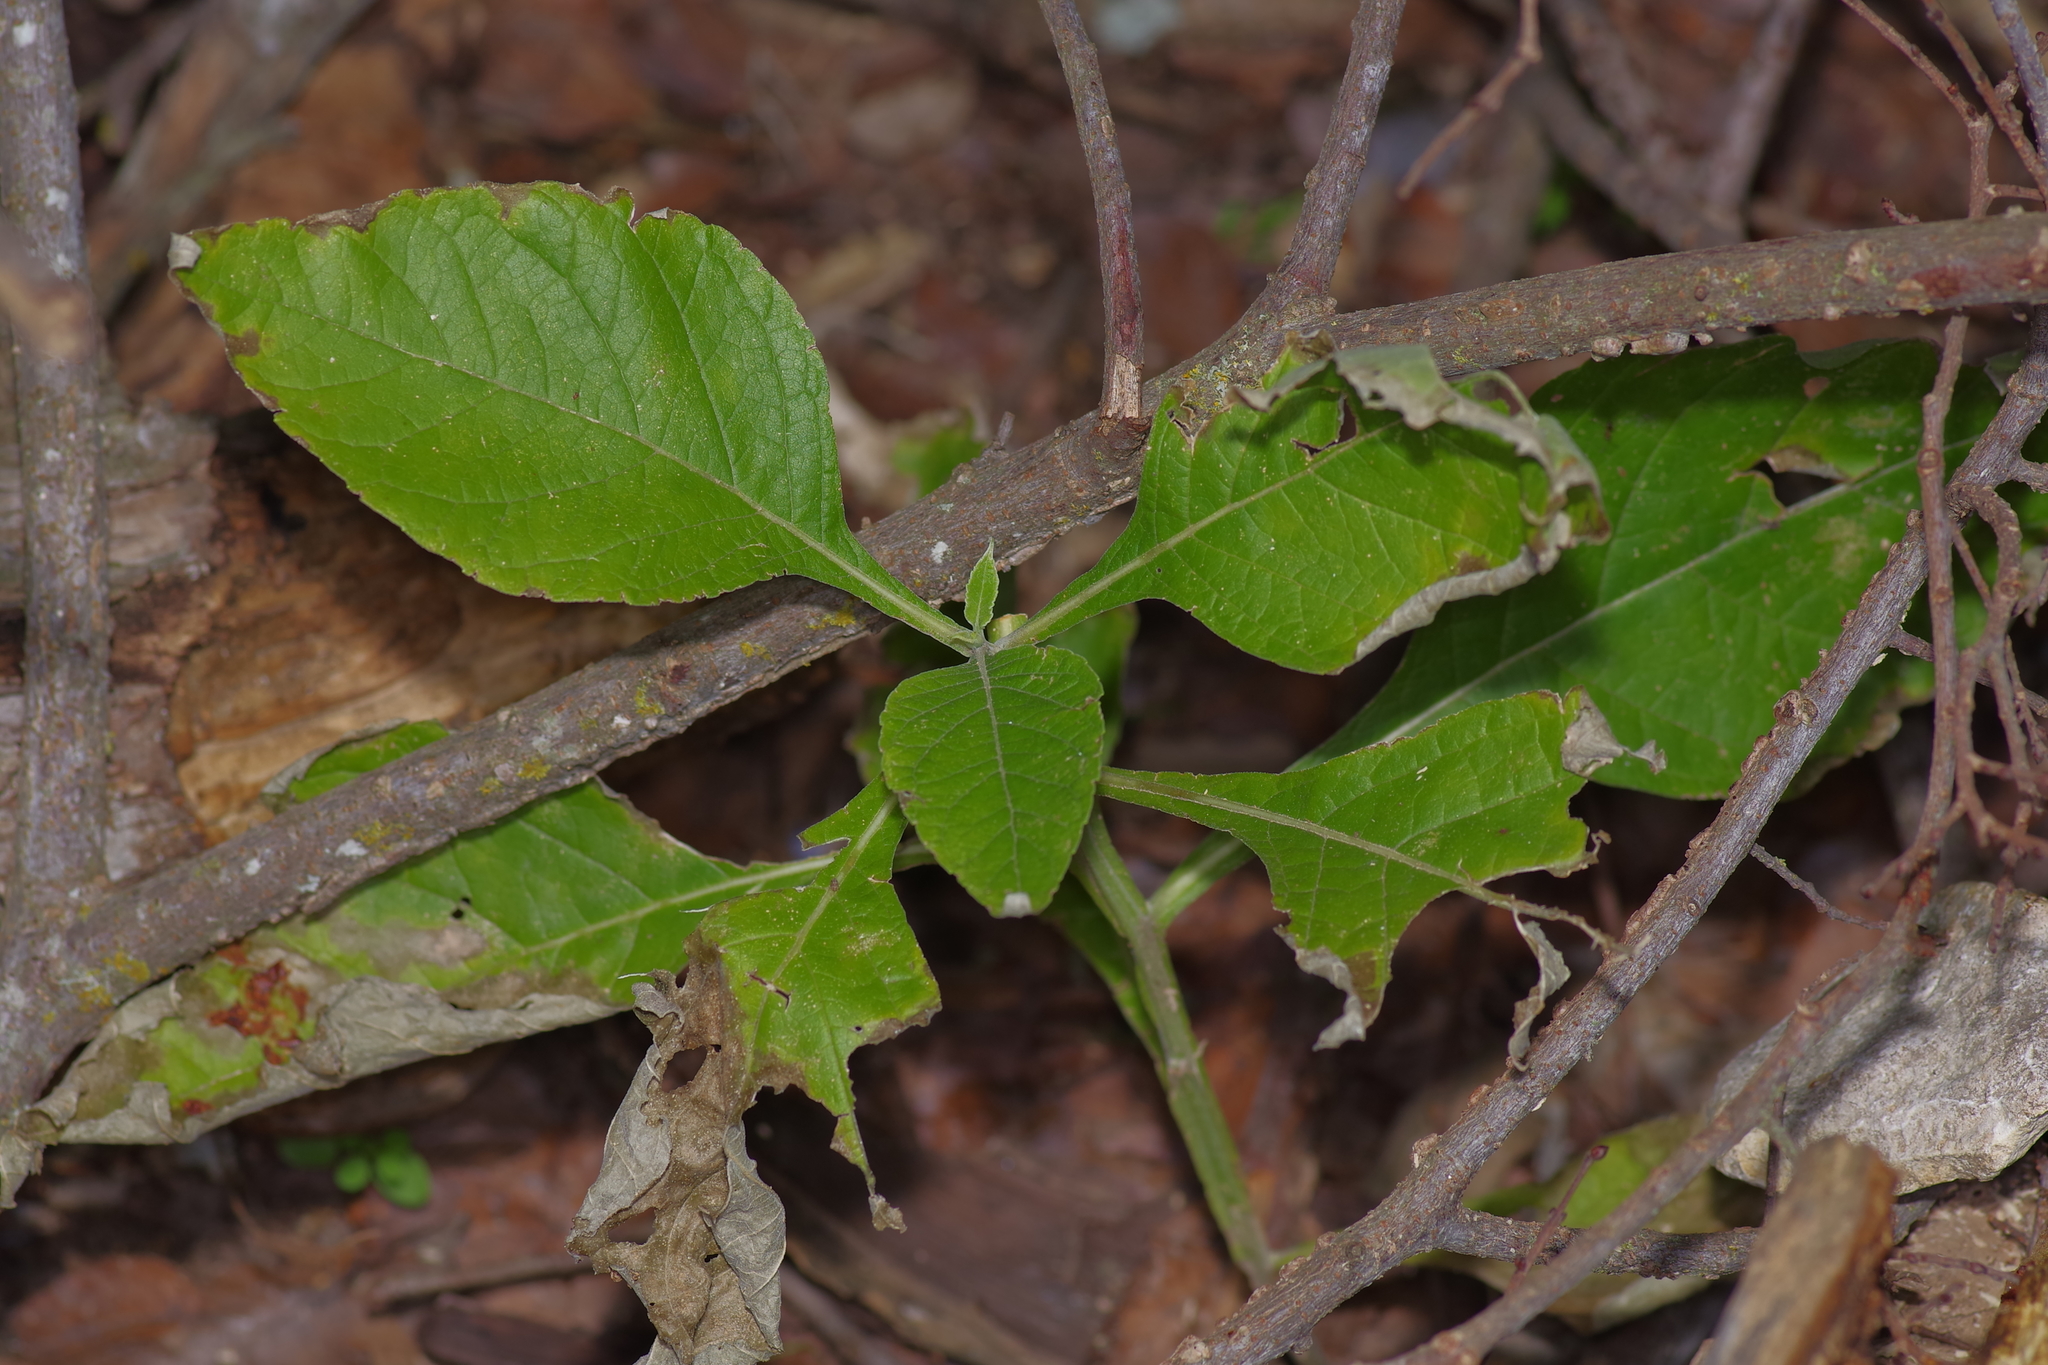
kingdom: Plantae
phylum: Tracheophyta
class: Magnoliopsida
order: Asterales
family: Asteraceae
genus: Verbesina
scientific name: Verbesina virginica
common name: Frostweed
